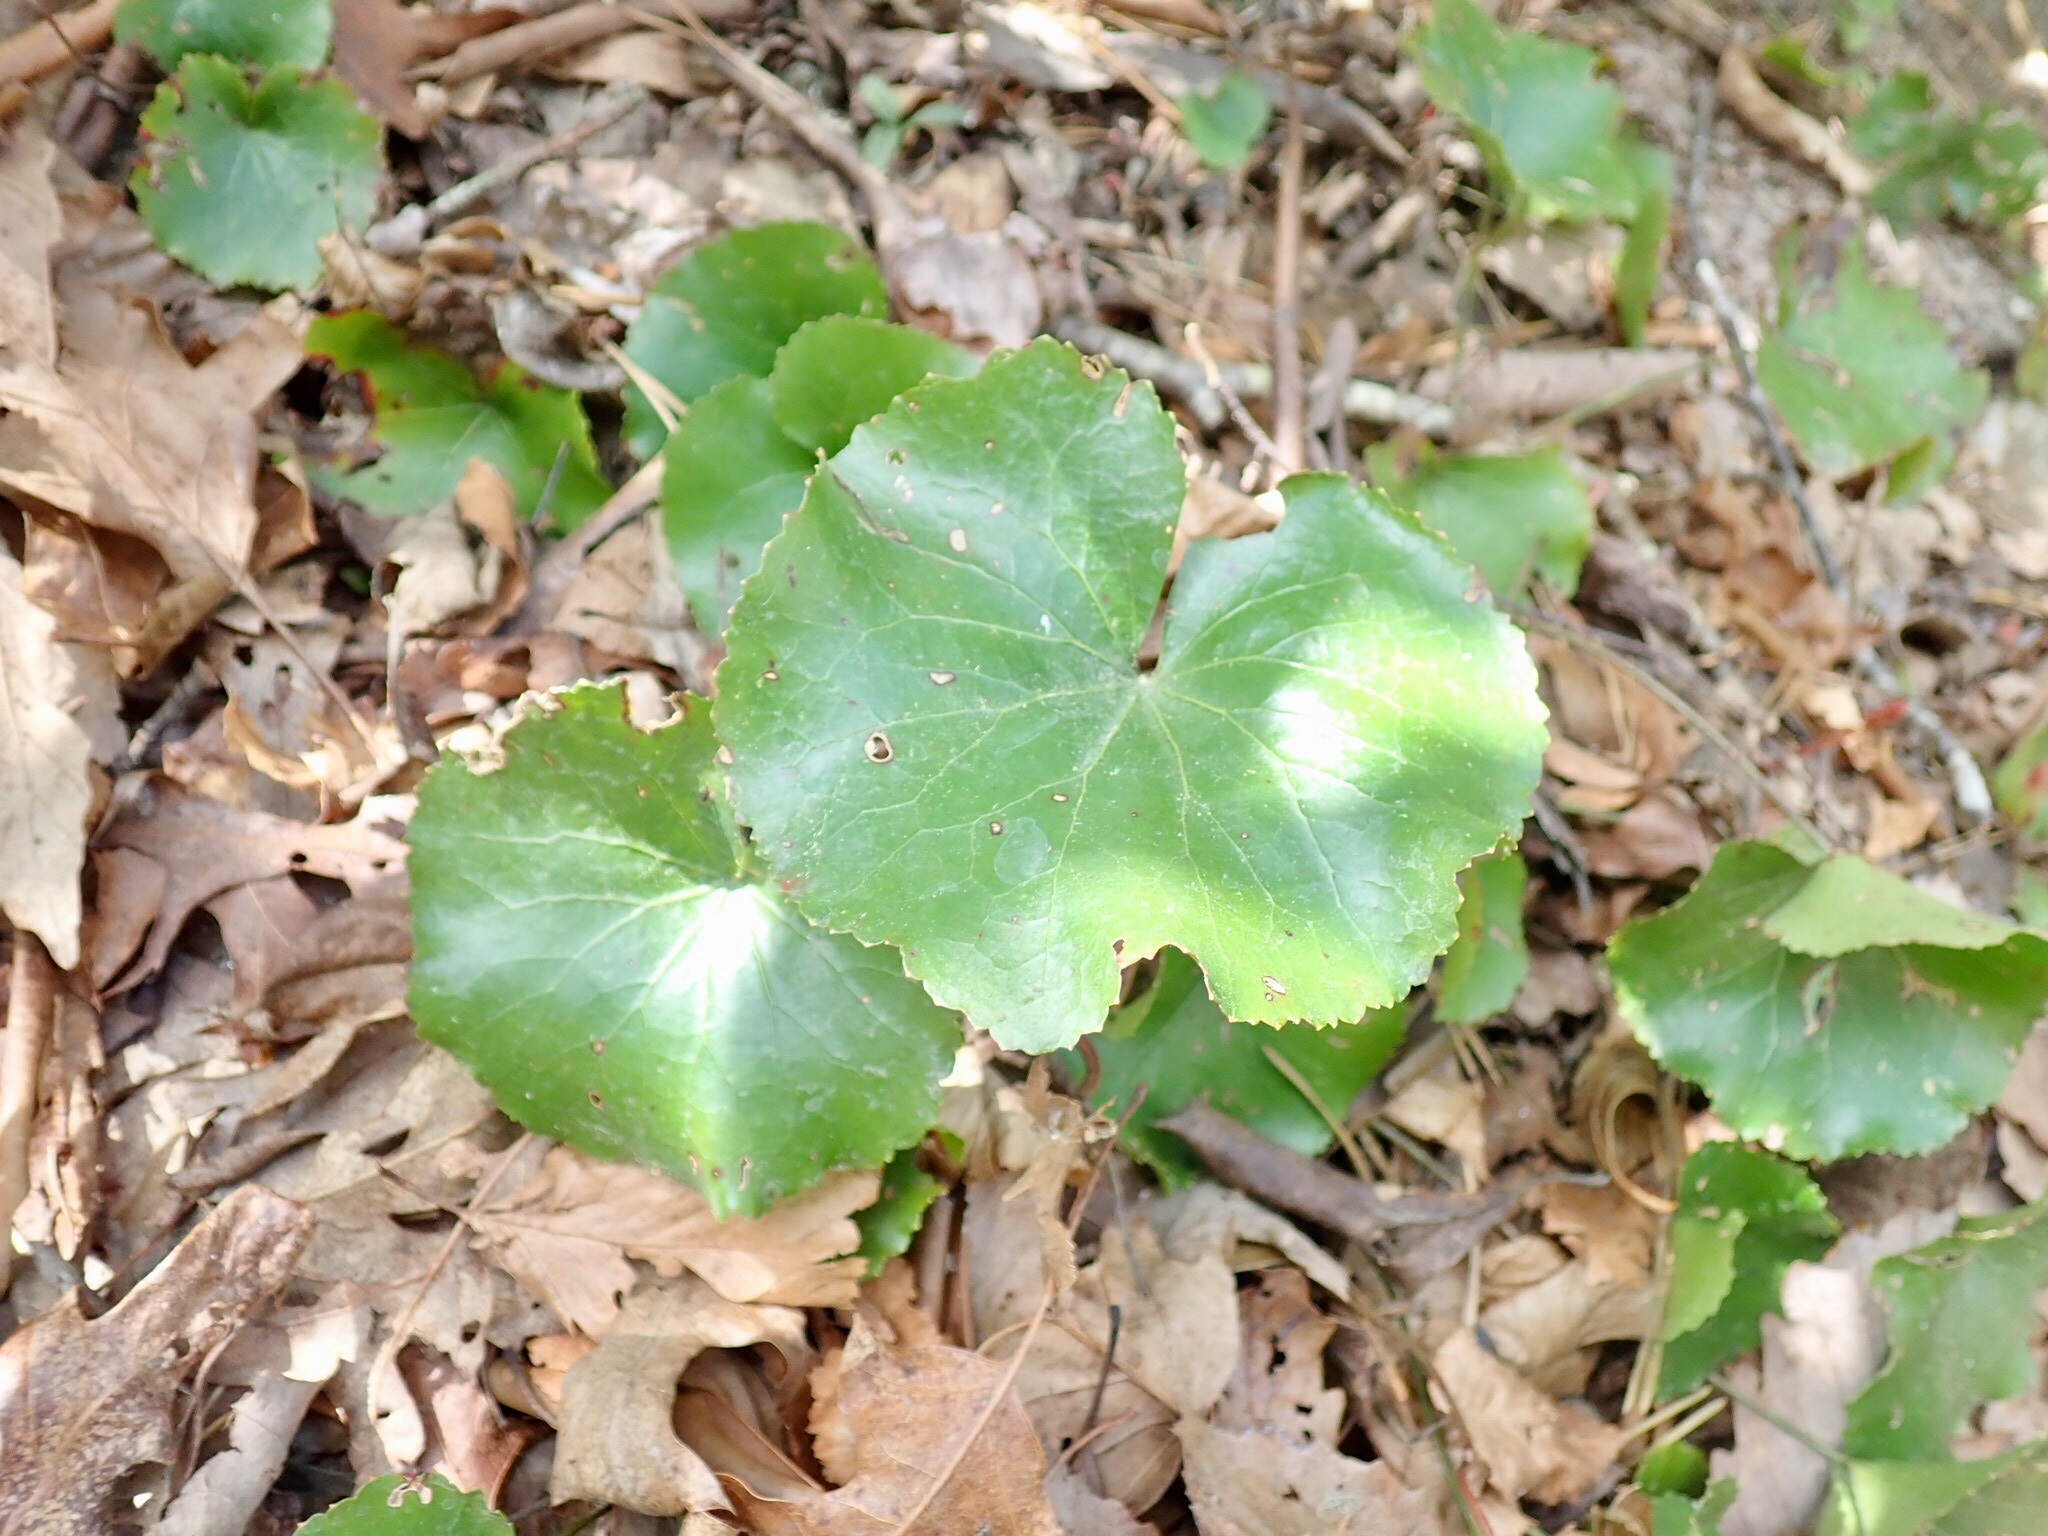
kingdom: Plantae
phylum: Tracheophyta
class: Magnoliopsida
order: Ericales
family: Diapensiaceae
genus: Galax
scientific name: Galax urceolata
